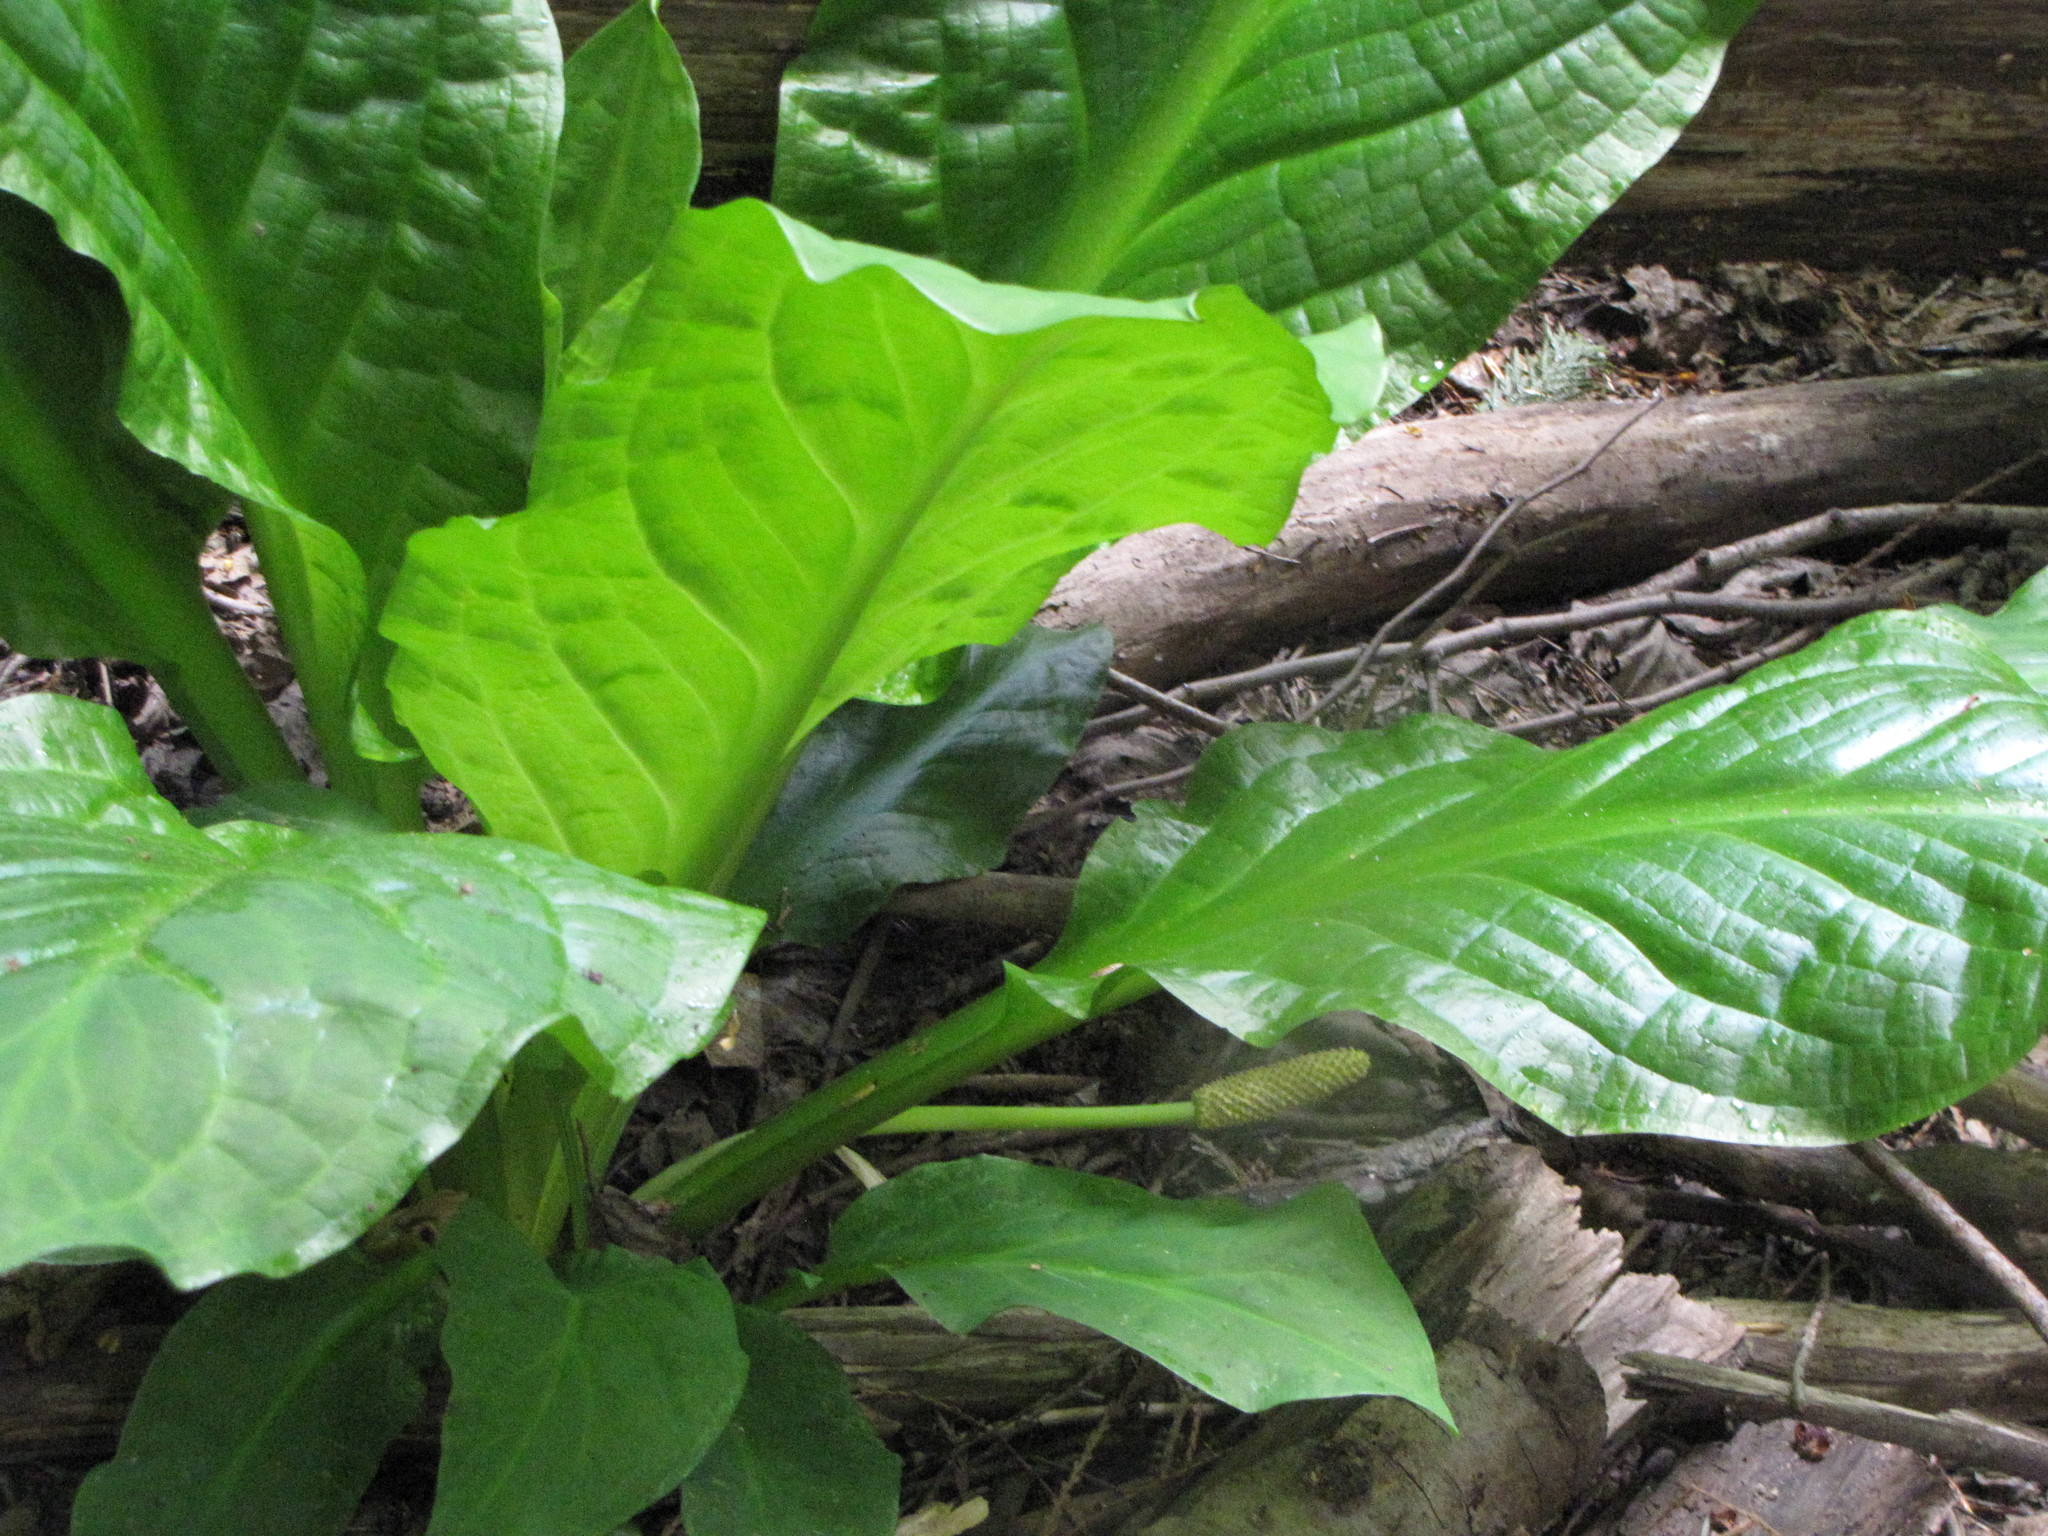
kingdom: Plantae
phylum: Tracheophyta
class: Liliopsida
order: Alismatales
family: Araceae
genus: Lysichiton
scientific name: Lysichiton americanus
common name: American skunk cabbage
